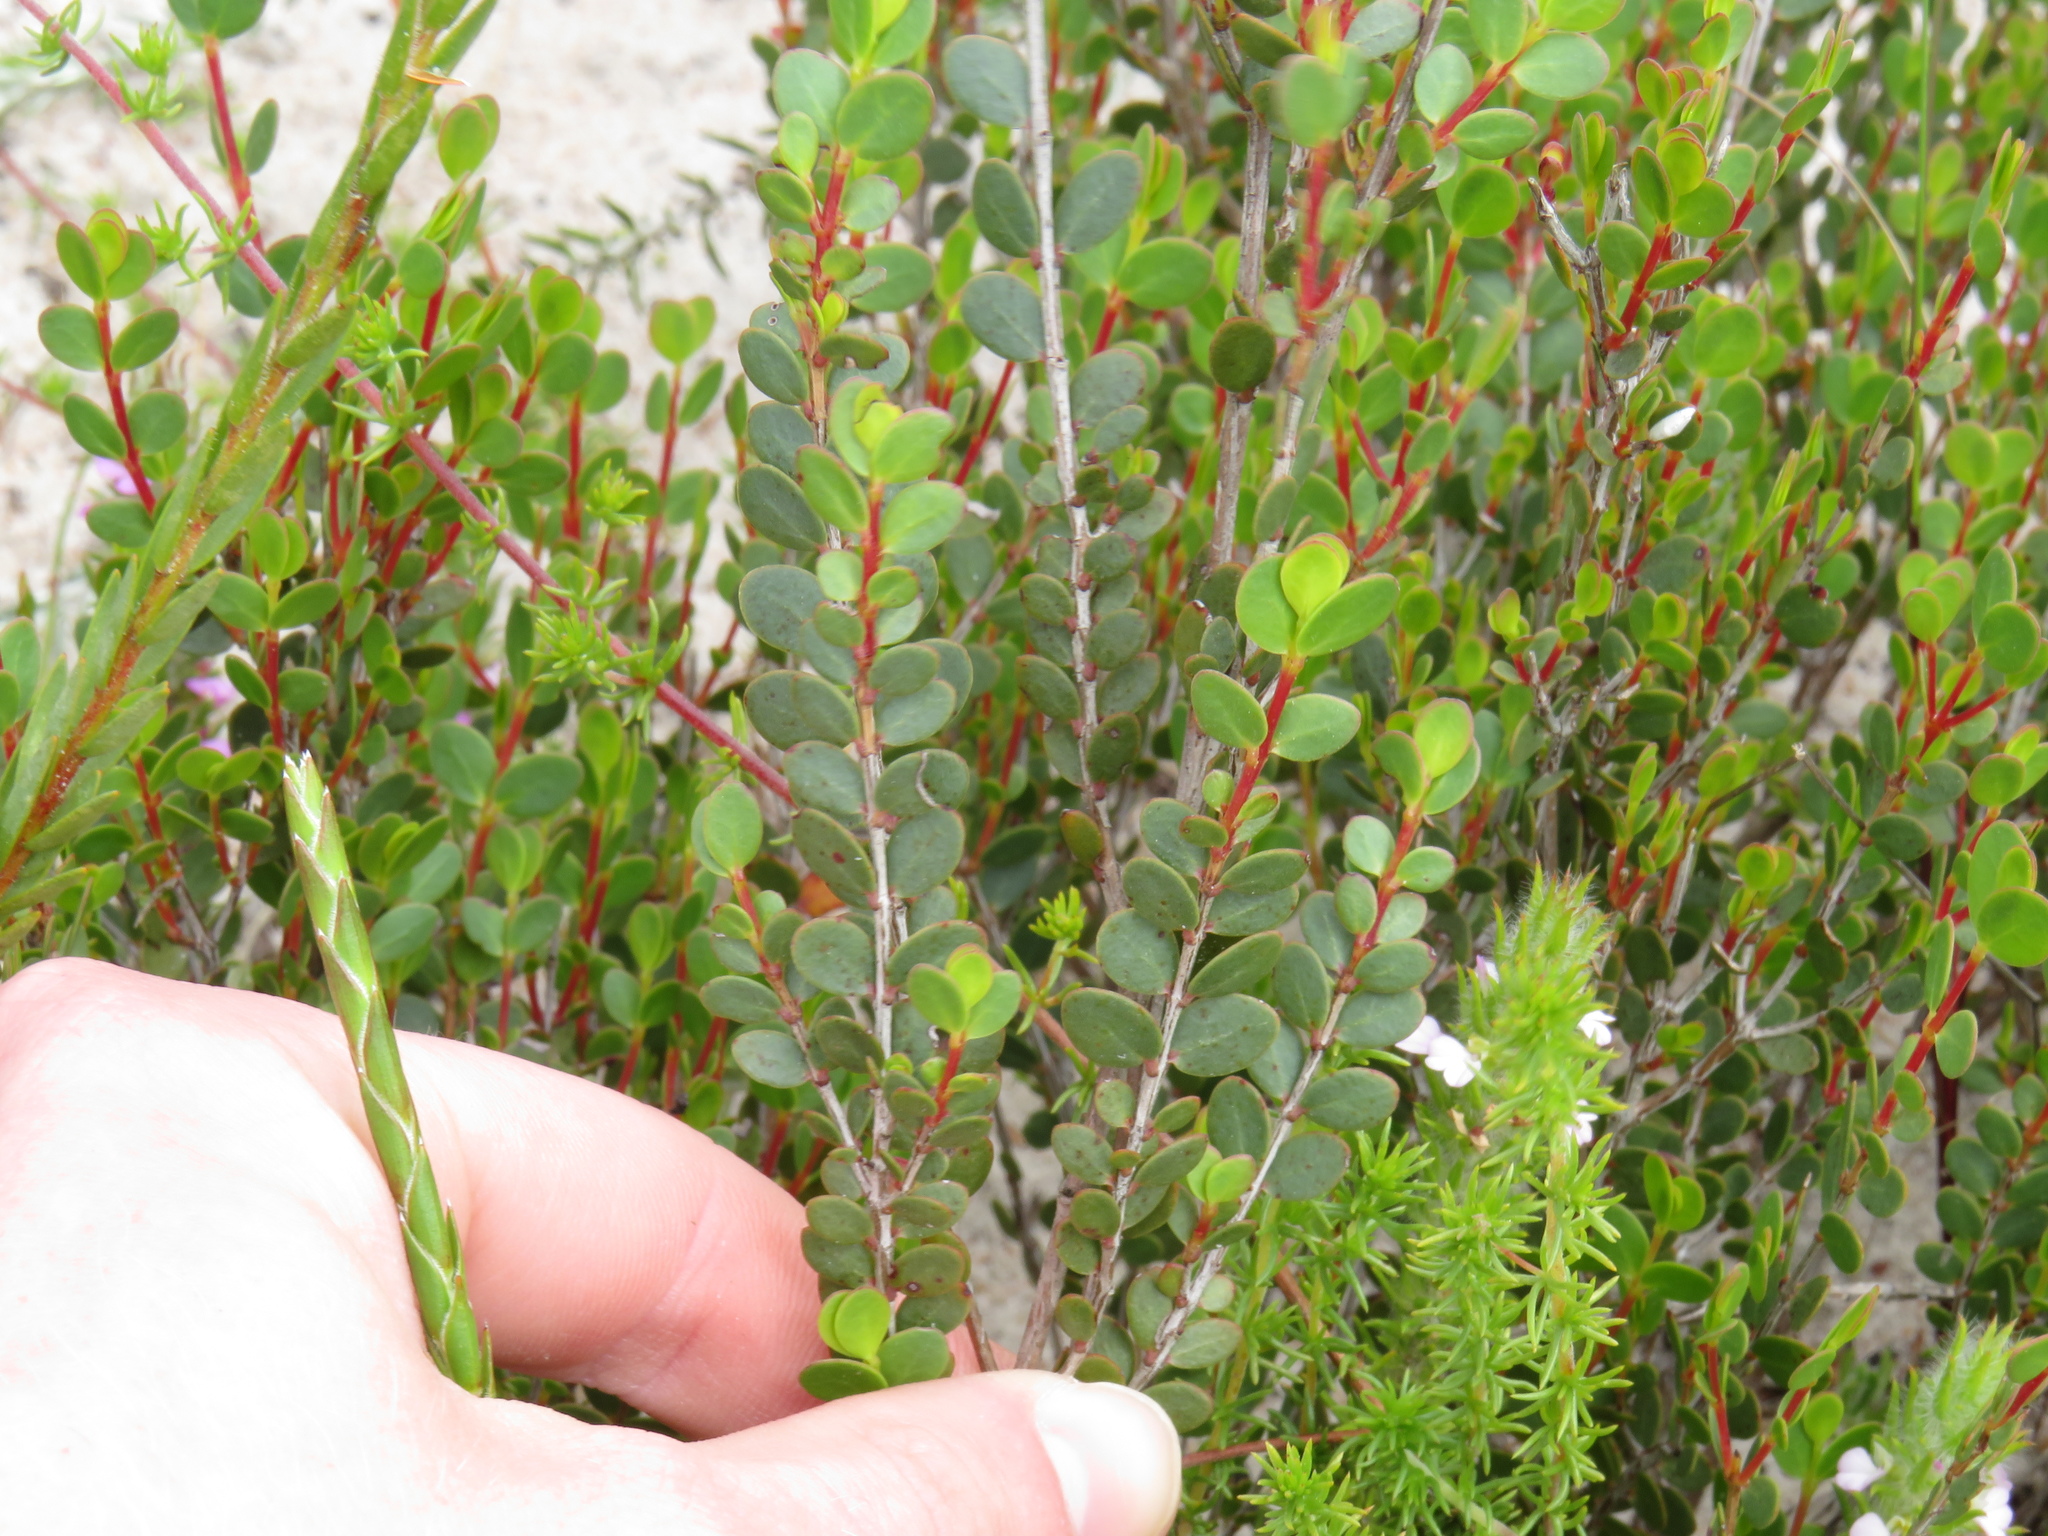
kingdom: Plantae
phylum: Tracheophyta
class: Magnoliopsida
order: Myrtales
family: Penaeaceae
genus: Stylapterus
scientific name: Stylapterus fruticulosus
